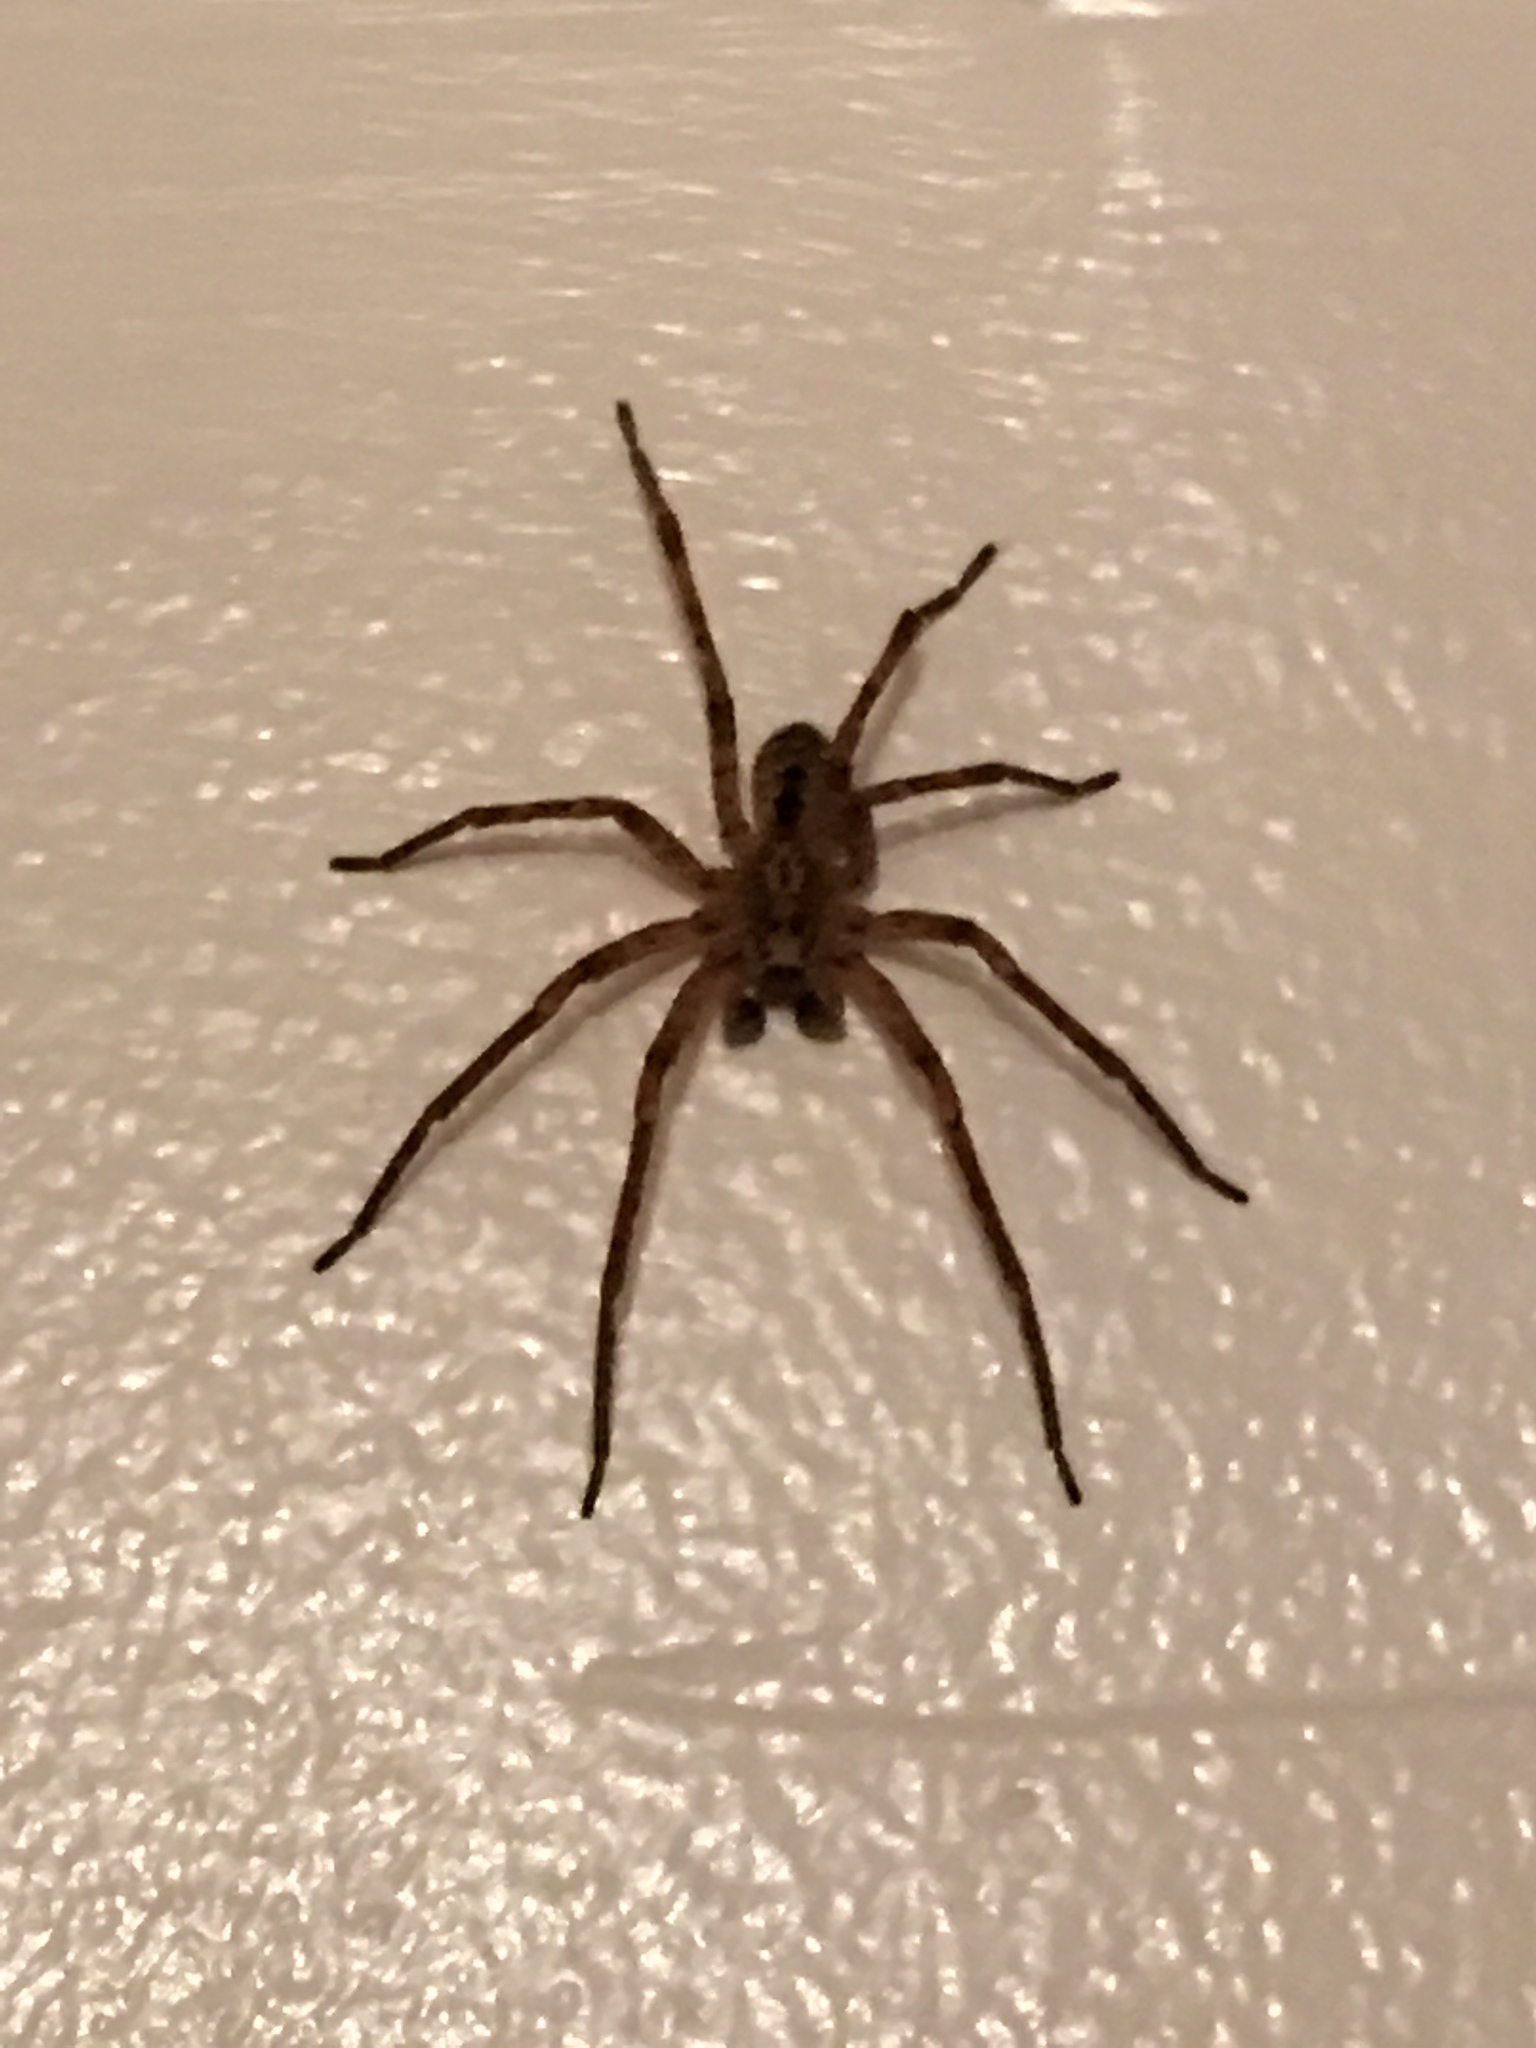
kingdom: Animalia
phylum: Arthropoda
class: Arachnida
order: Araneae
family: Zoropsidae
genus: Zoropsis
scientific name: Zoropsis spinimana
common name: Zoropsid spider
